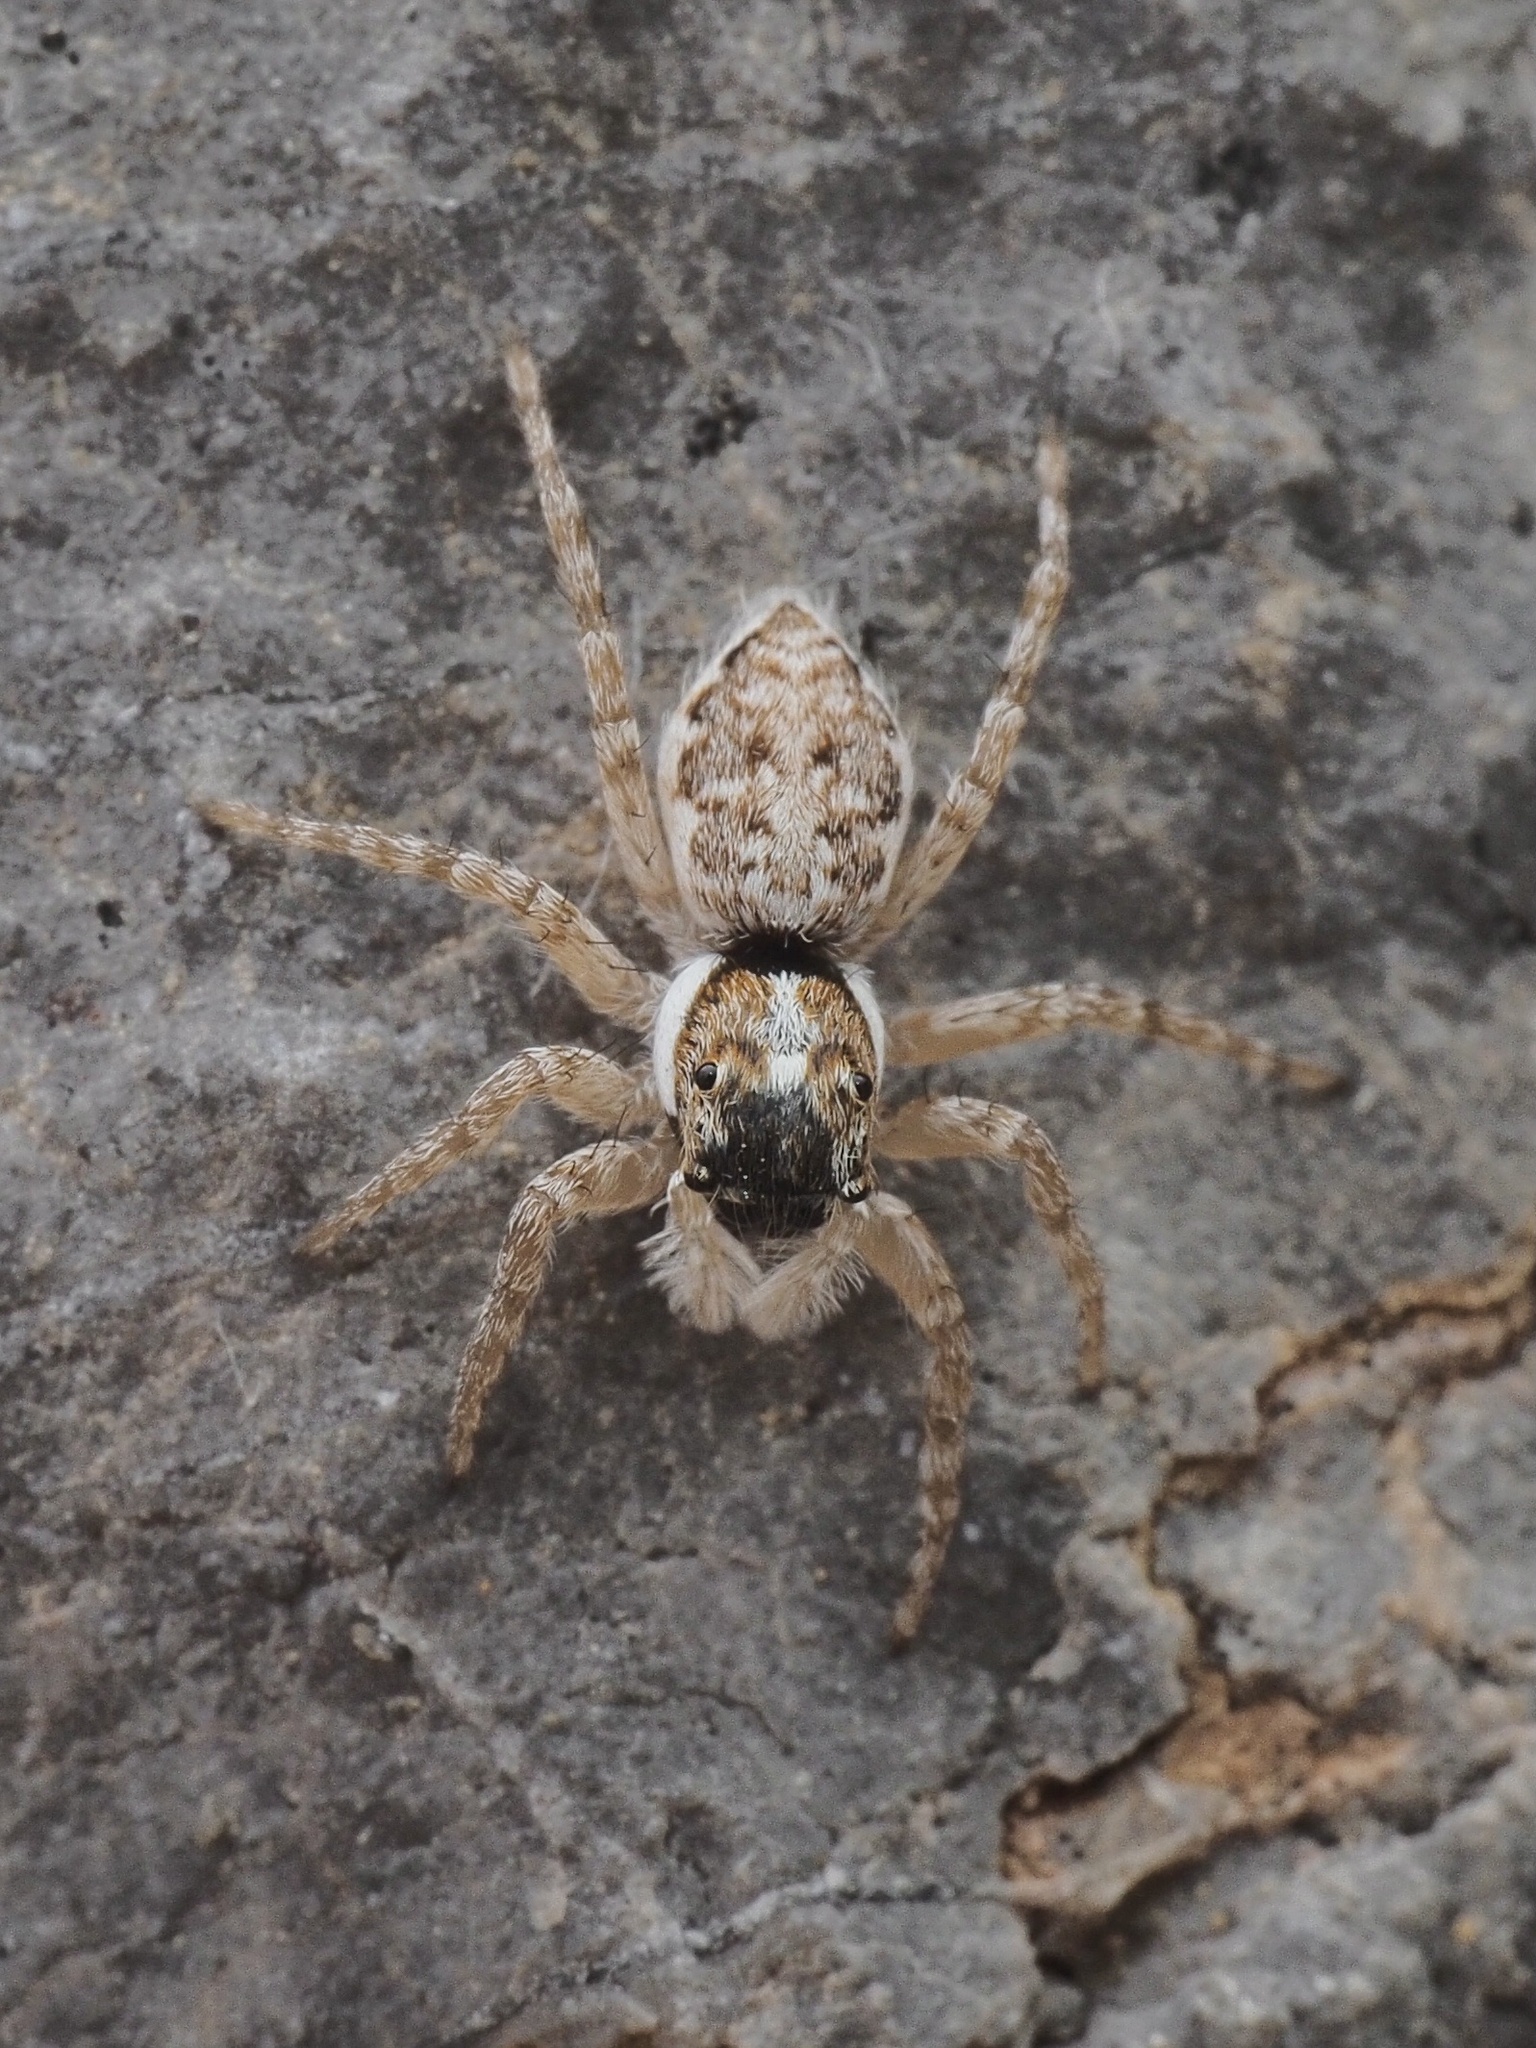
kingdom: Animalia
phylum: Arthropoda
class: Arachnida
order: Araneae
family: Salticidae
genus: Menemerus
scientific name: Menemerus semilimbatus
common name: Jumping spider
